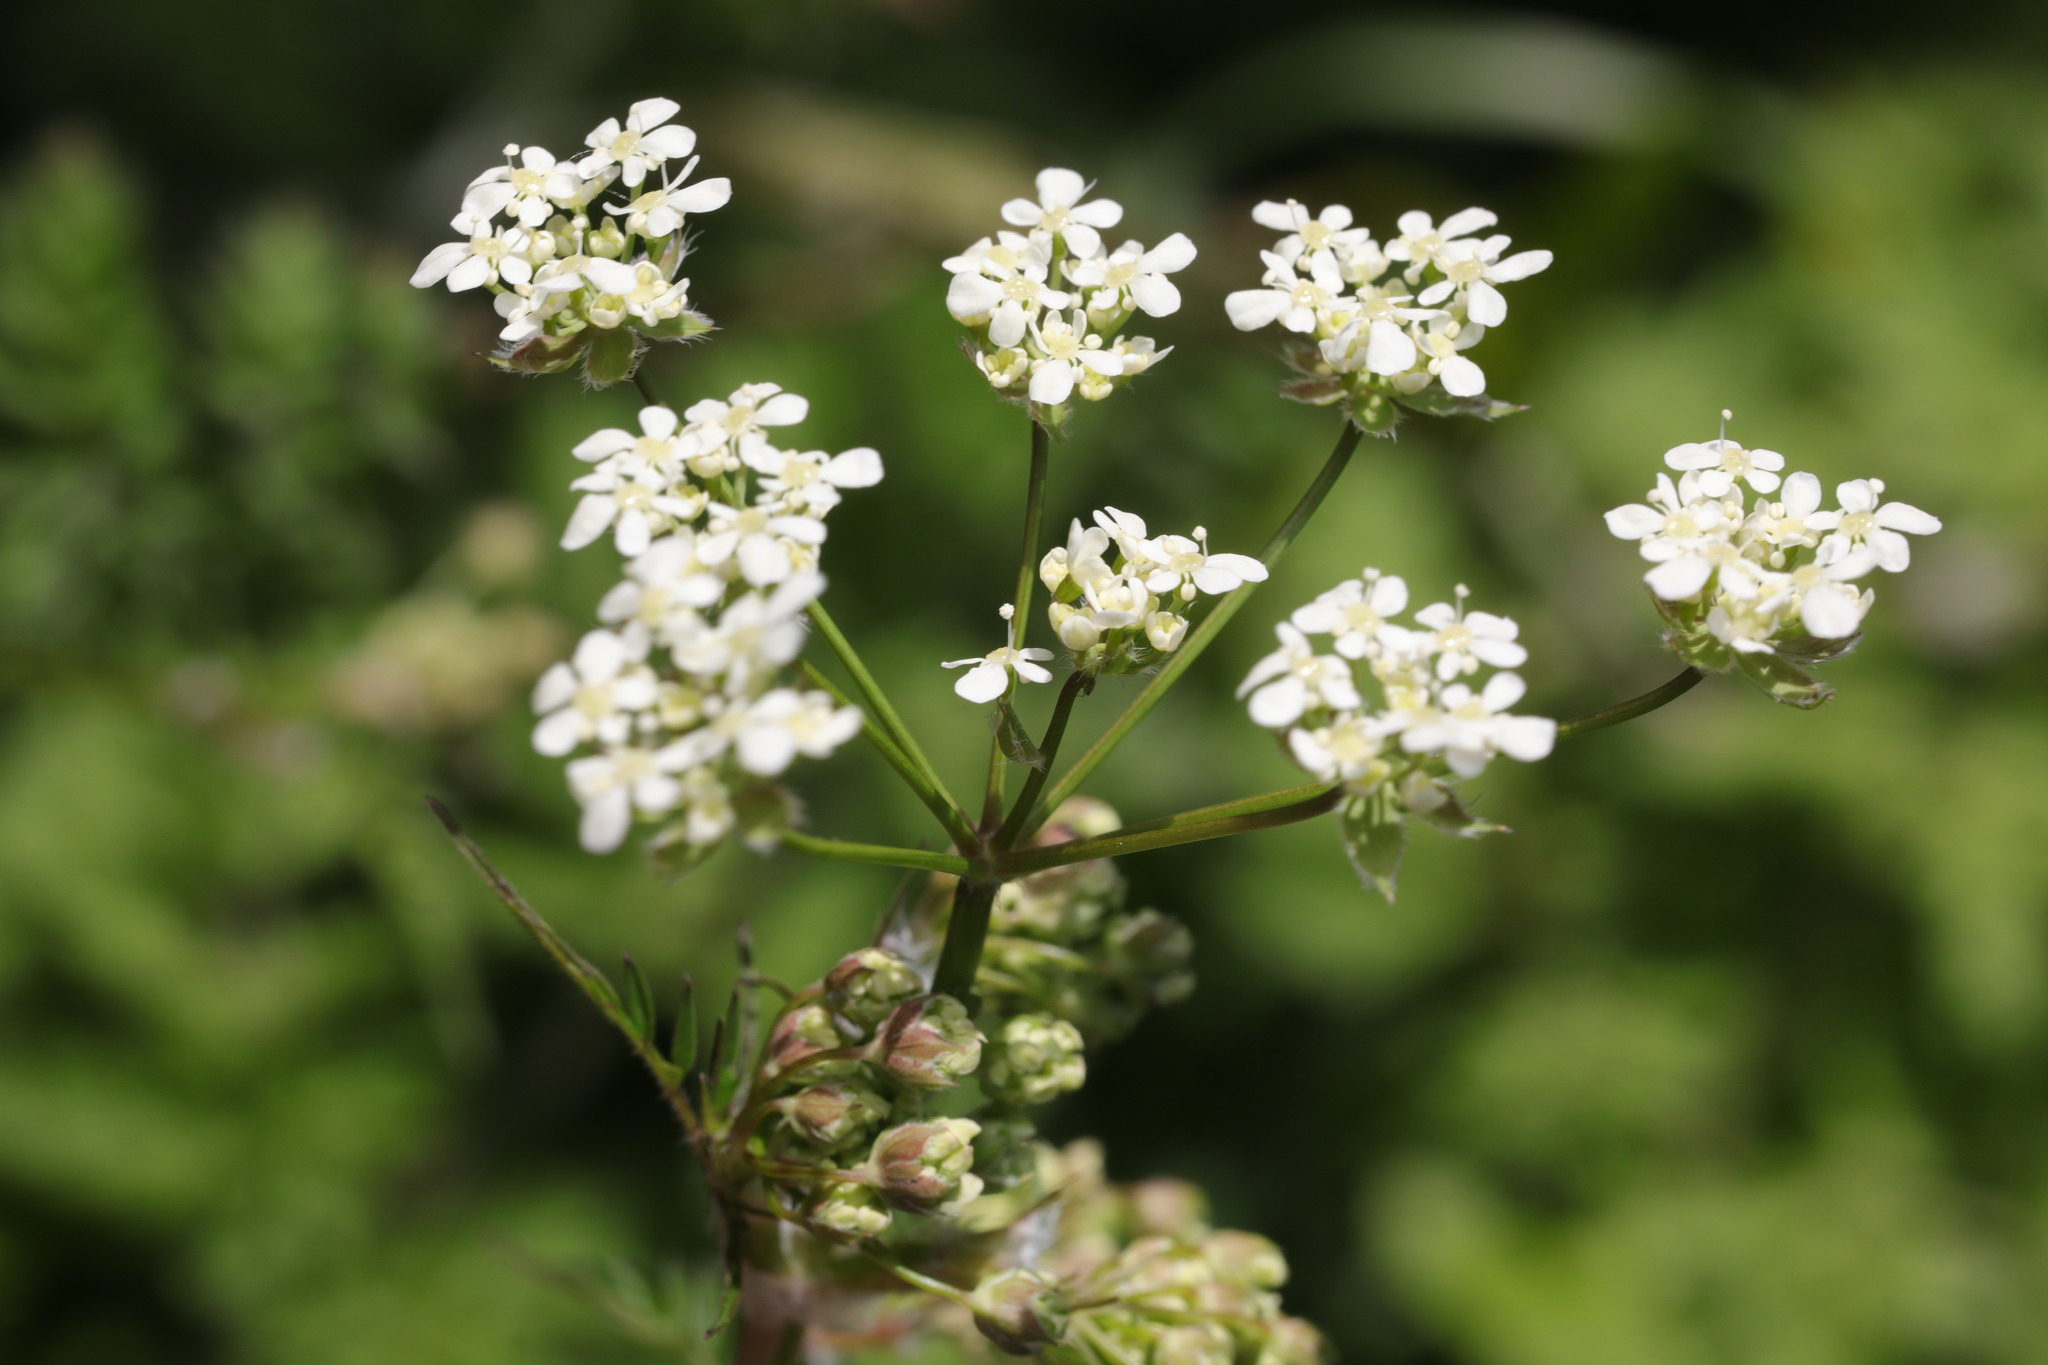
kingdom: Plantae
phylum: Tracheophyta
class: Magnoliopsida
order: Apiales
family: Apiaceae
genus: Anthriscus
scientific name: Anthriscus sylvestris
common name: Cow parsley
